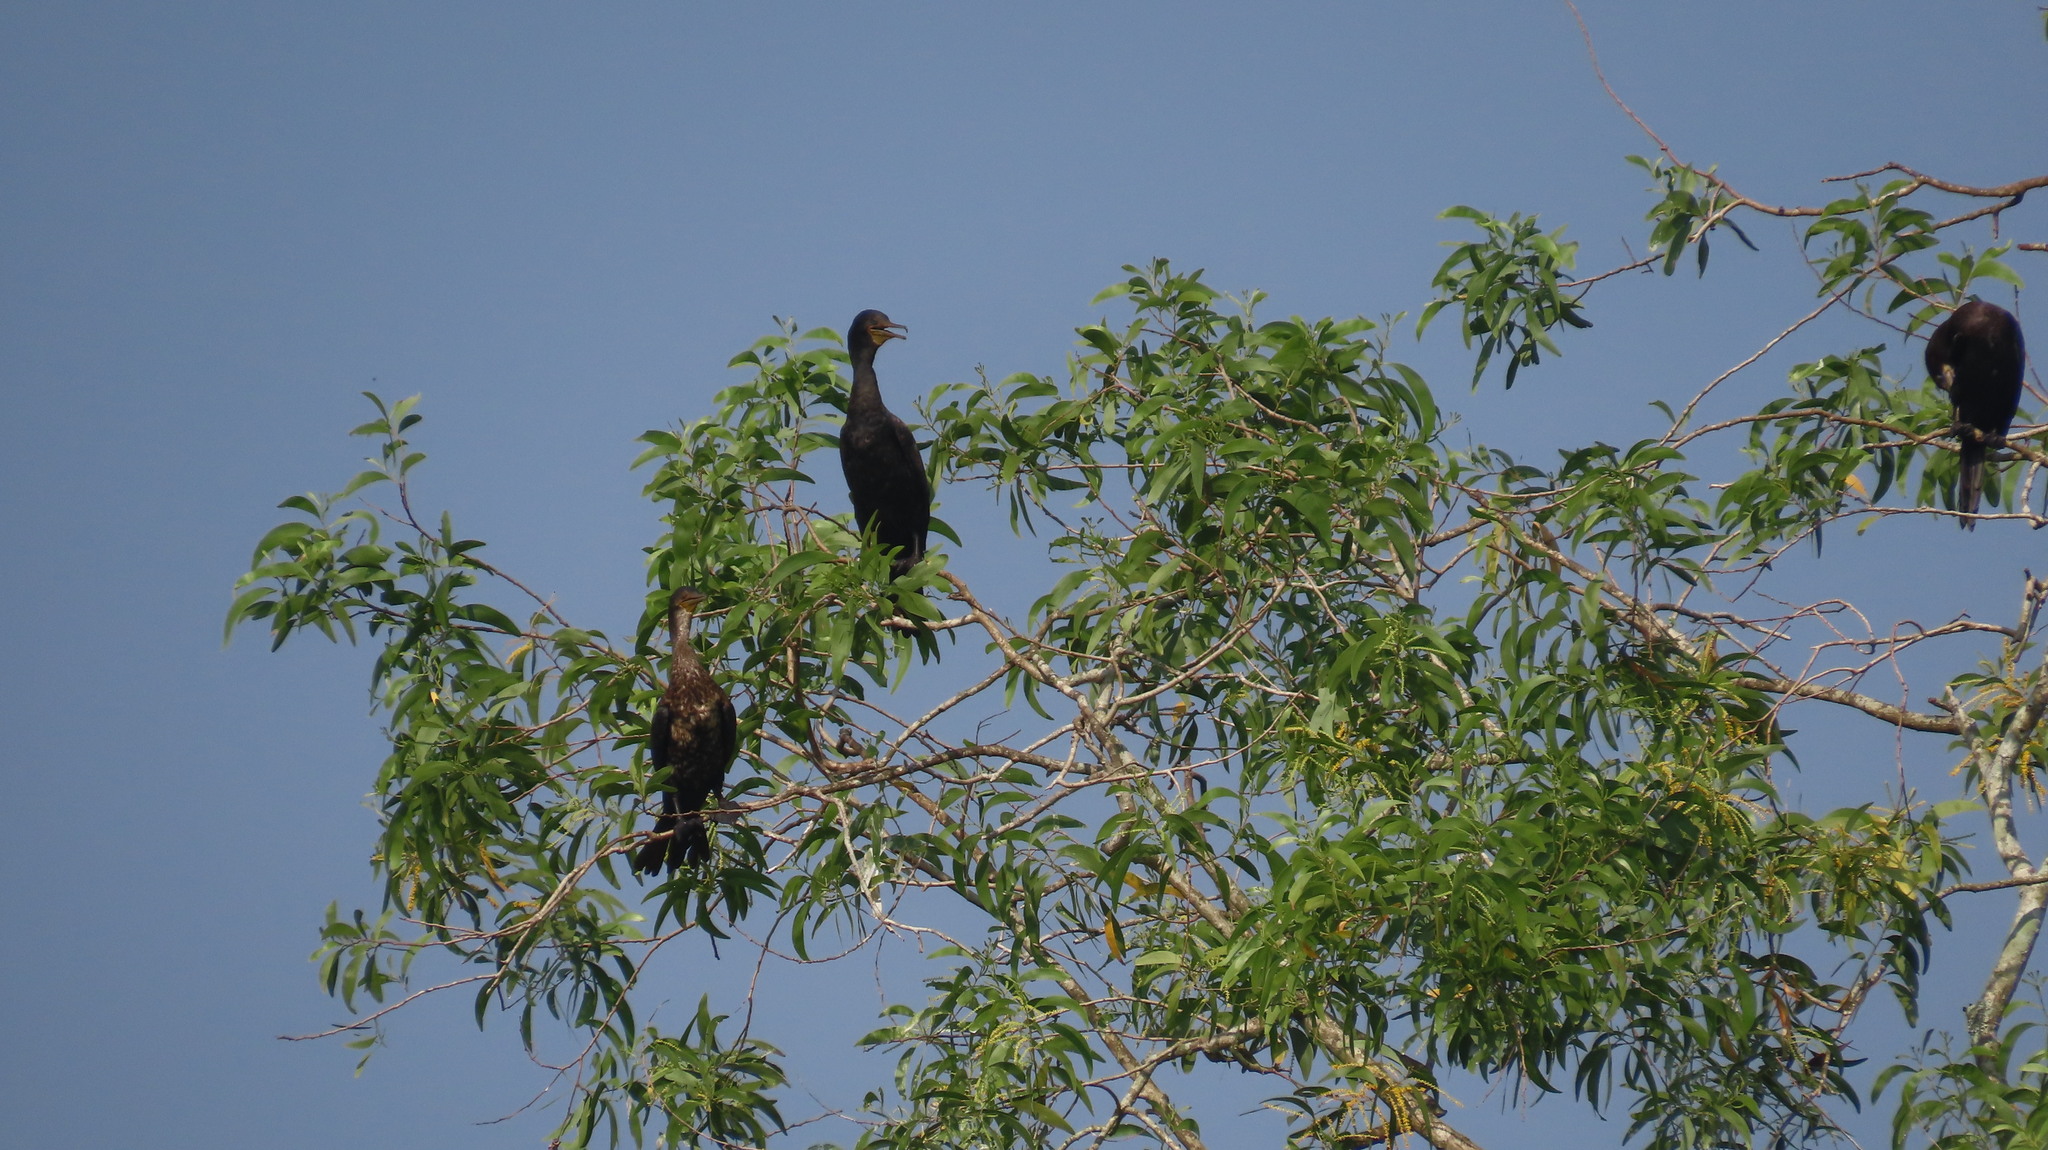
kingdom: Animalia
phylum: Chordata
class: Aves
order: Suliformes
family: Phalacrocoracidae
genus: Phalacrocorax
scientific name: Phalacrocorax fuscicollis
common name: Indian cormorant
